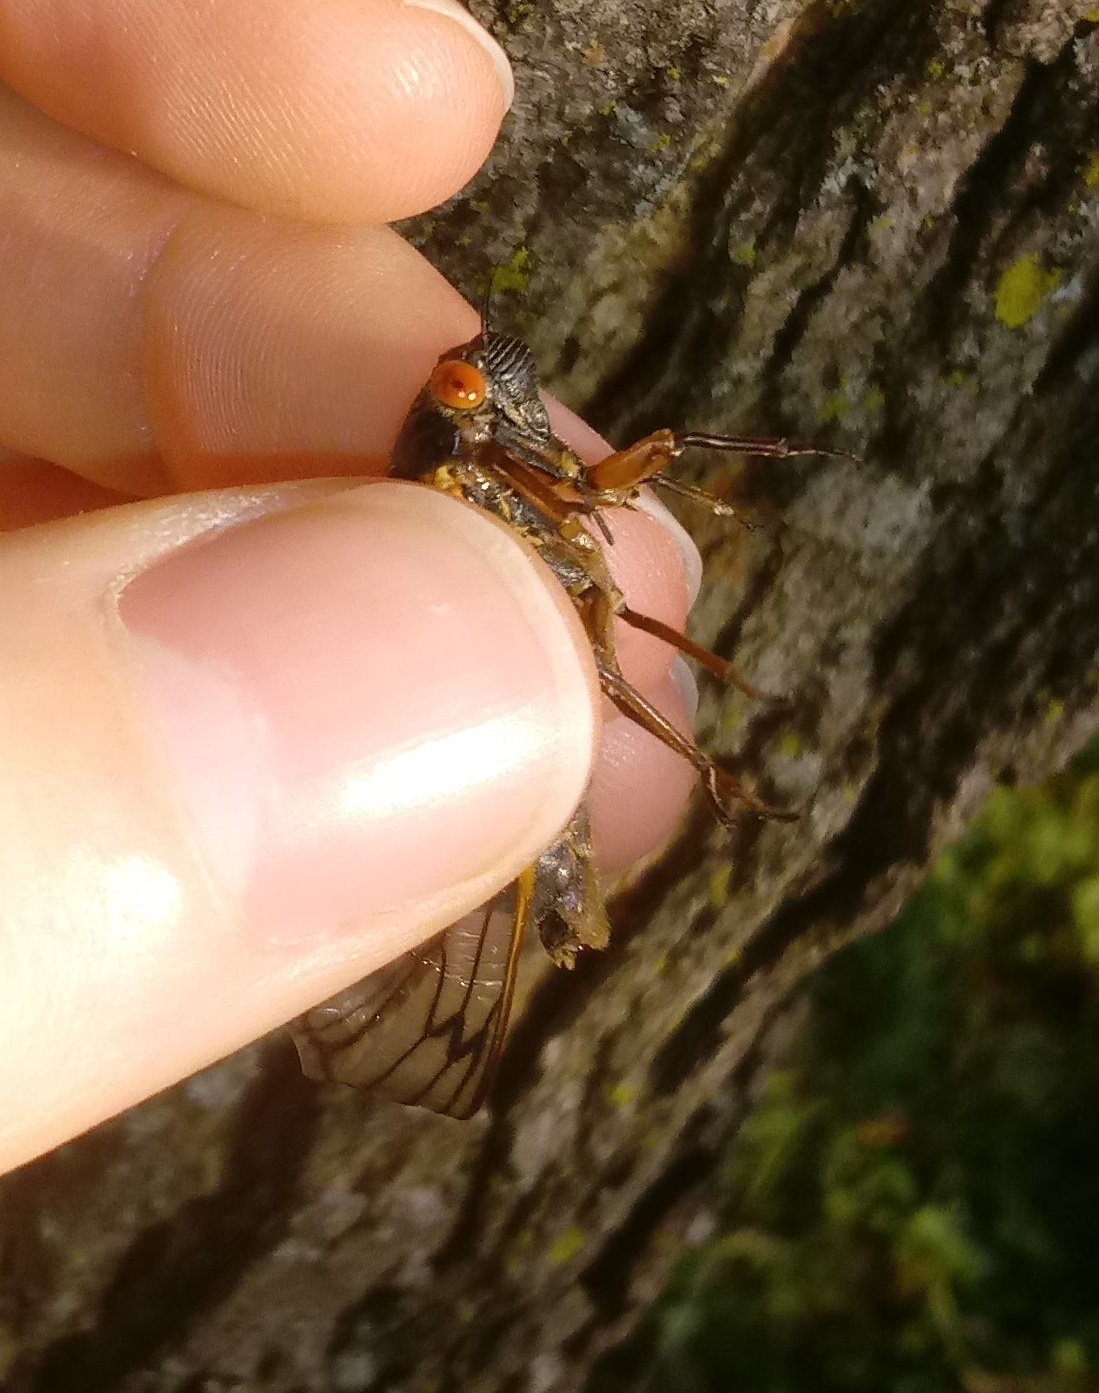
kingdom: Animalia
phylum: Arthropoda
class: Insecta
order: Hemiptera
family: Cicadidae
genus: Magicicada
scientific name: Magicicada septendecim
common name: Periodical cicada
